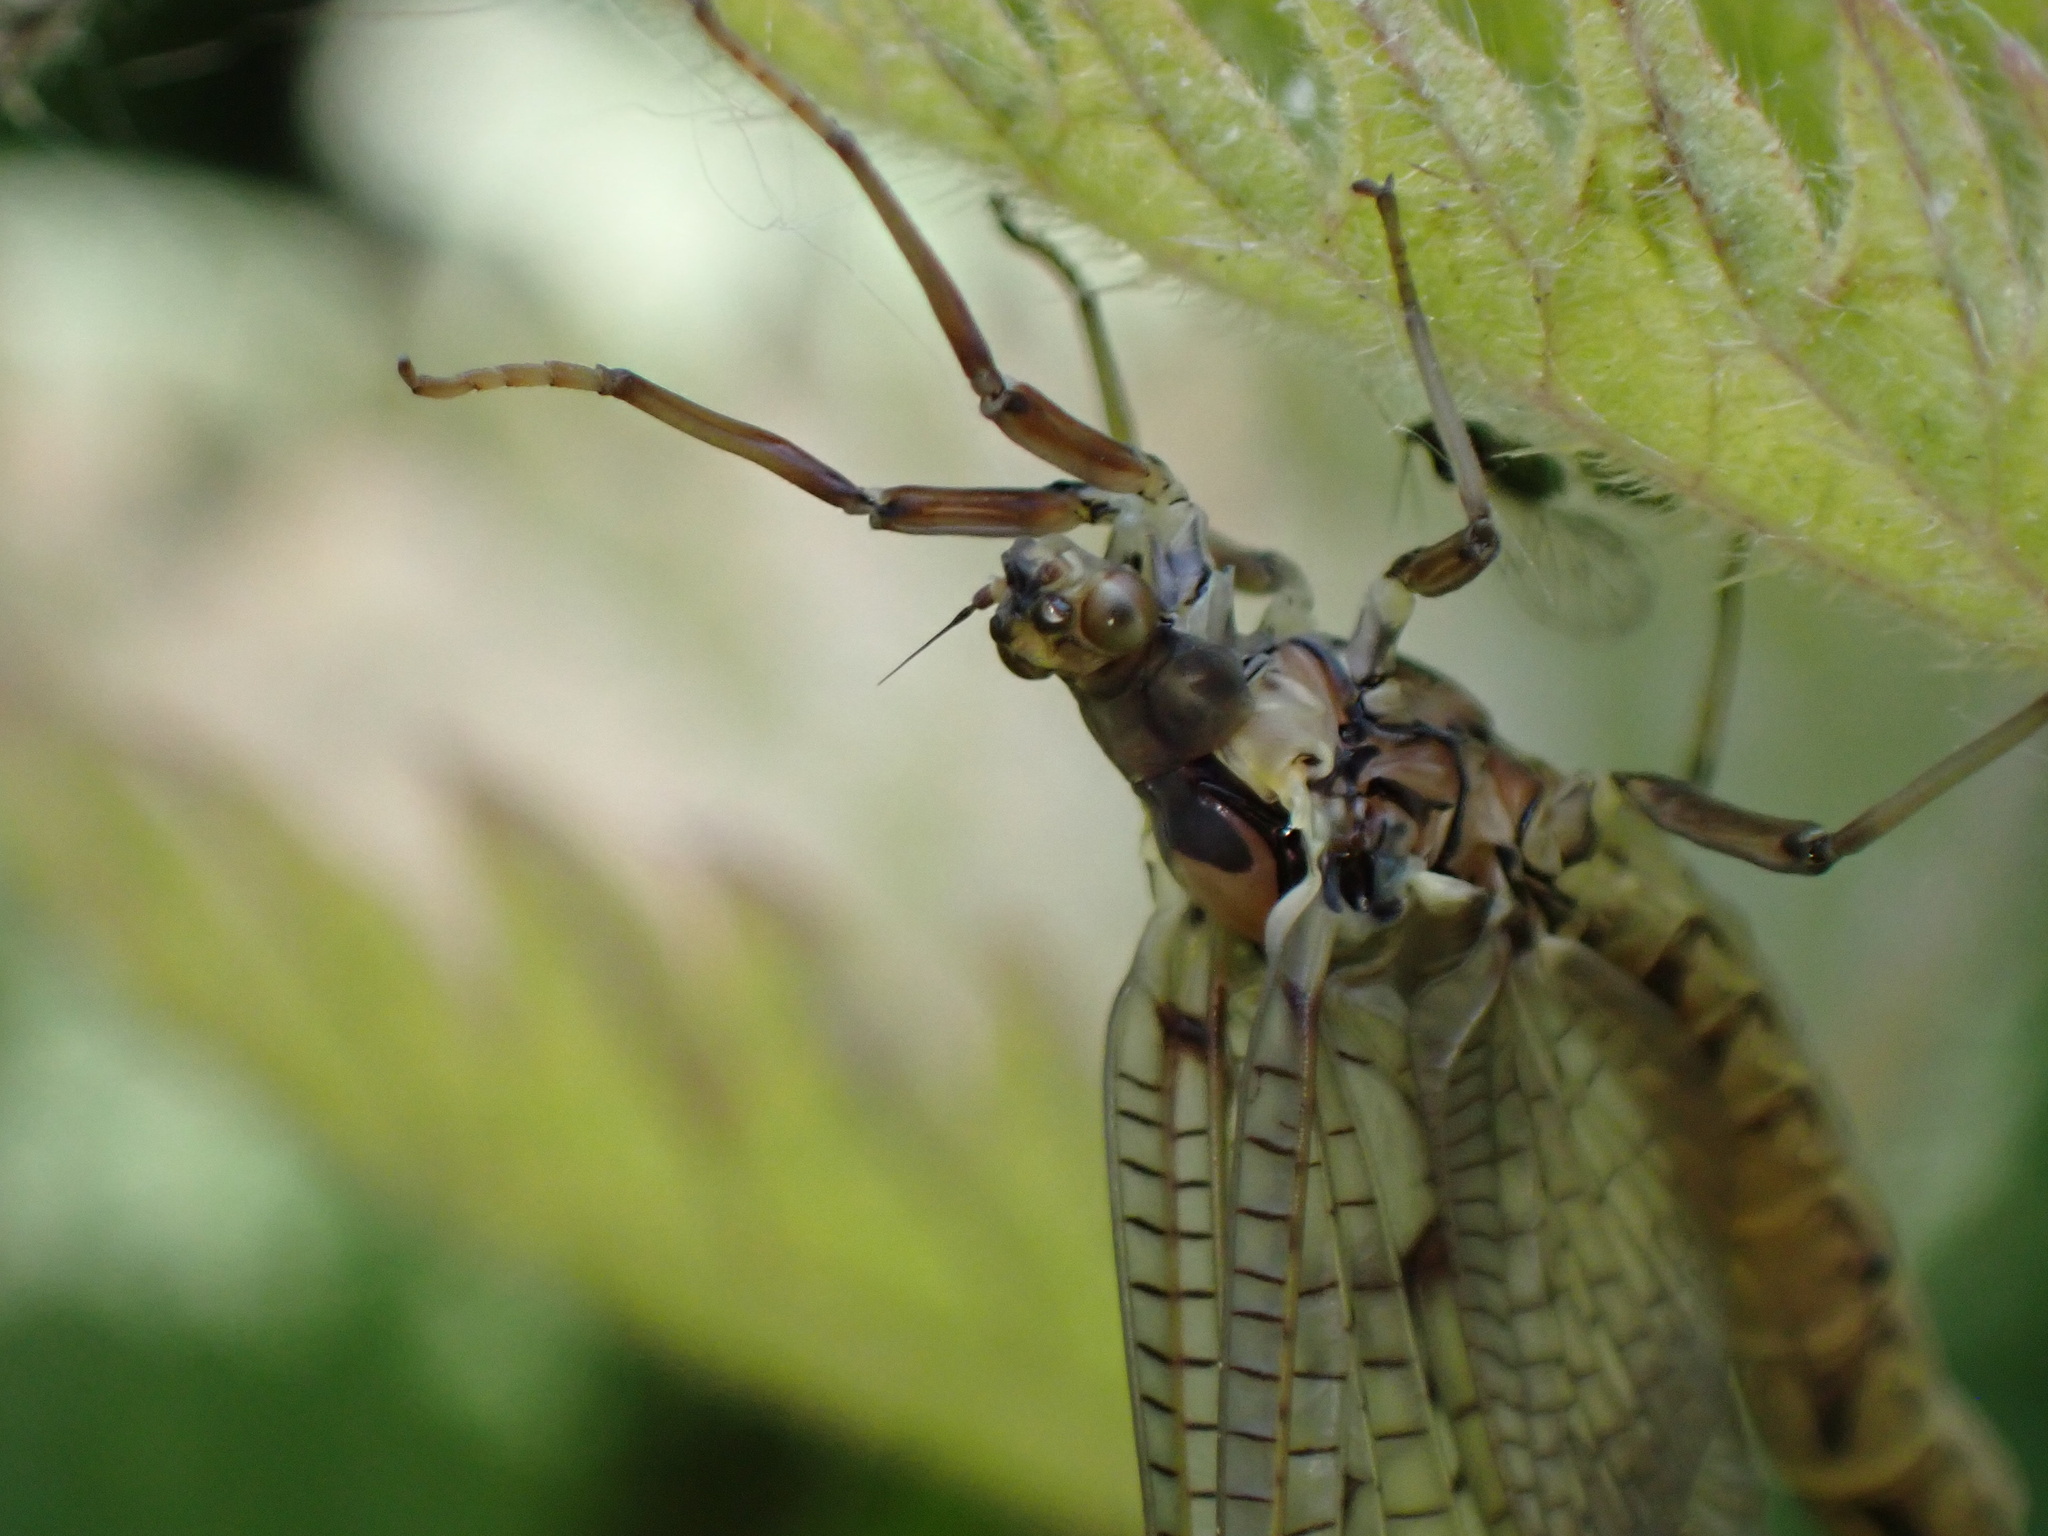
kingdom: Animalia
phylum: Arthropoda
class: Insecta
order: Ephemeroptera
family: Ephemeridae
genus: Ephemera
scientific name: Ephemera vulgata
